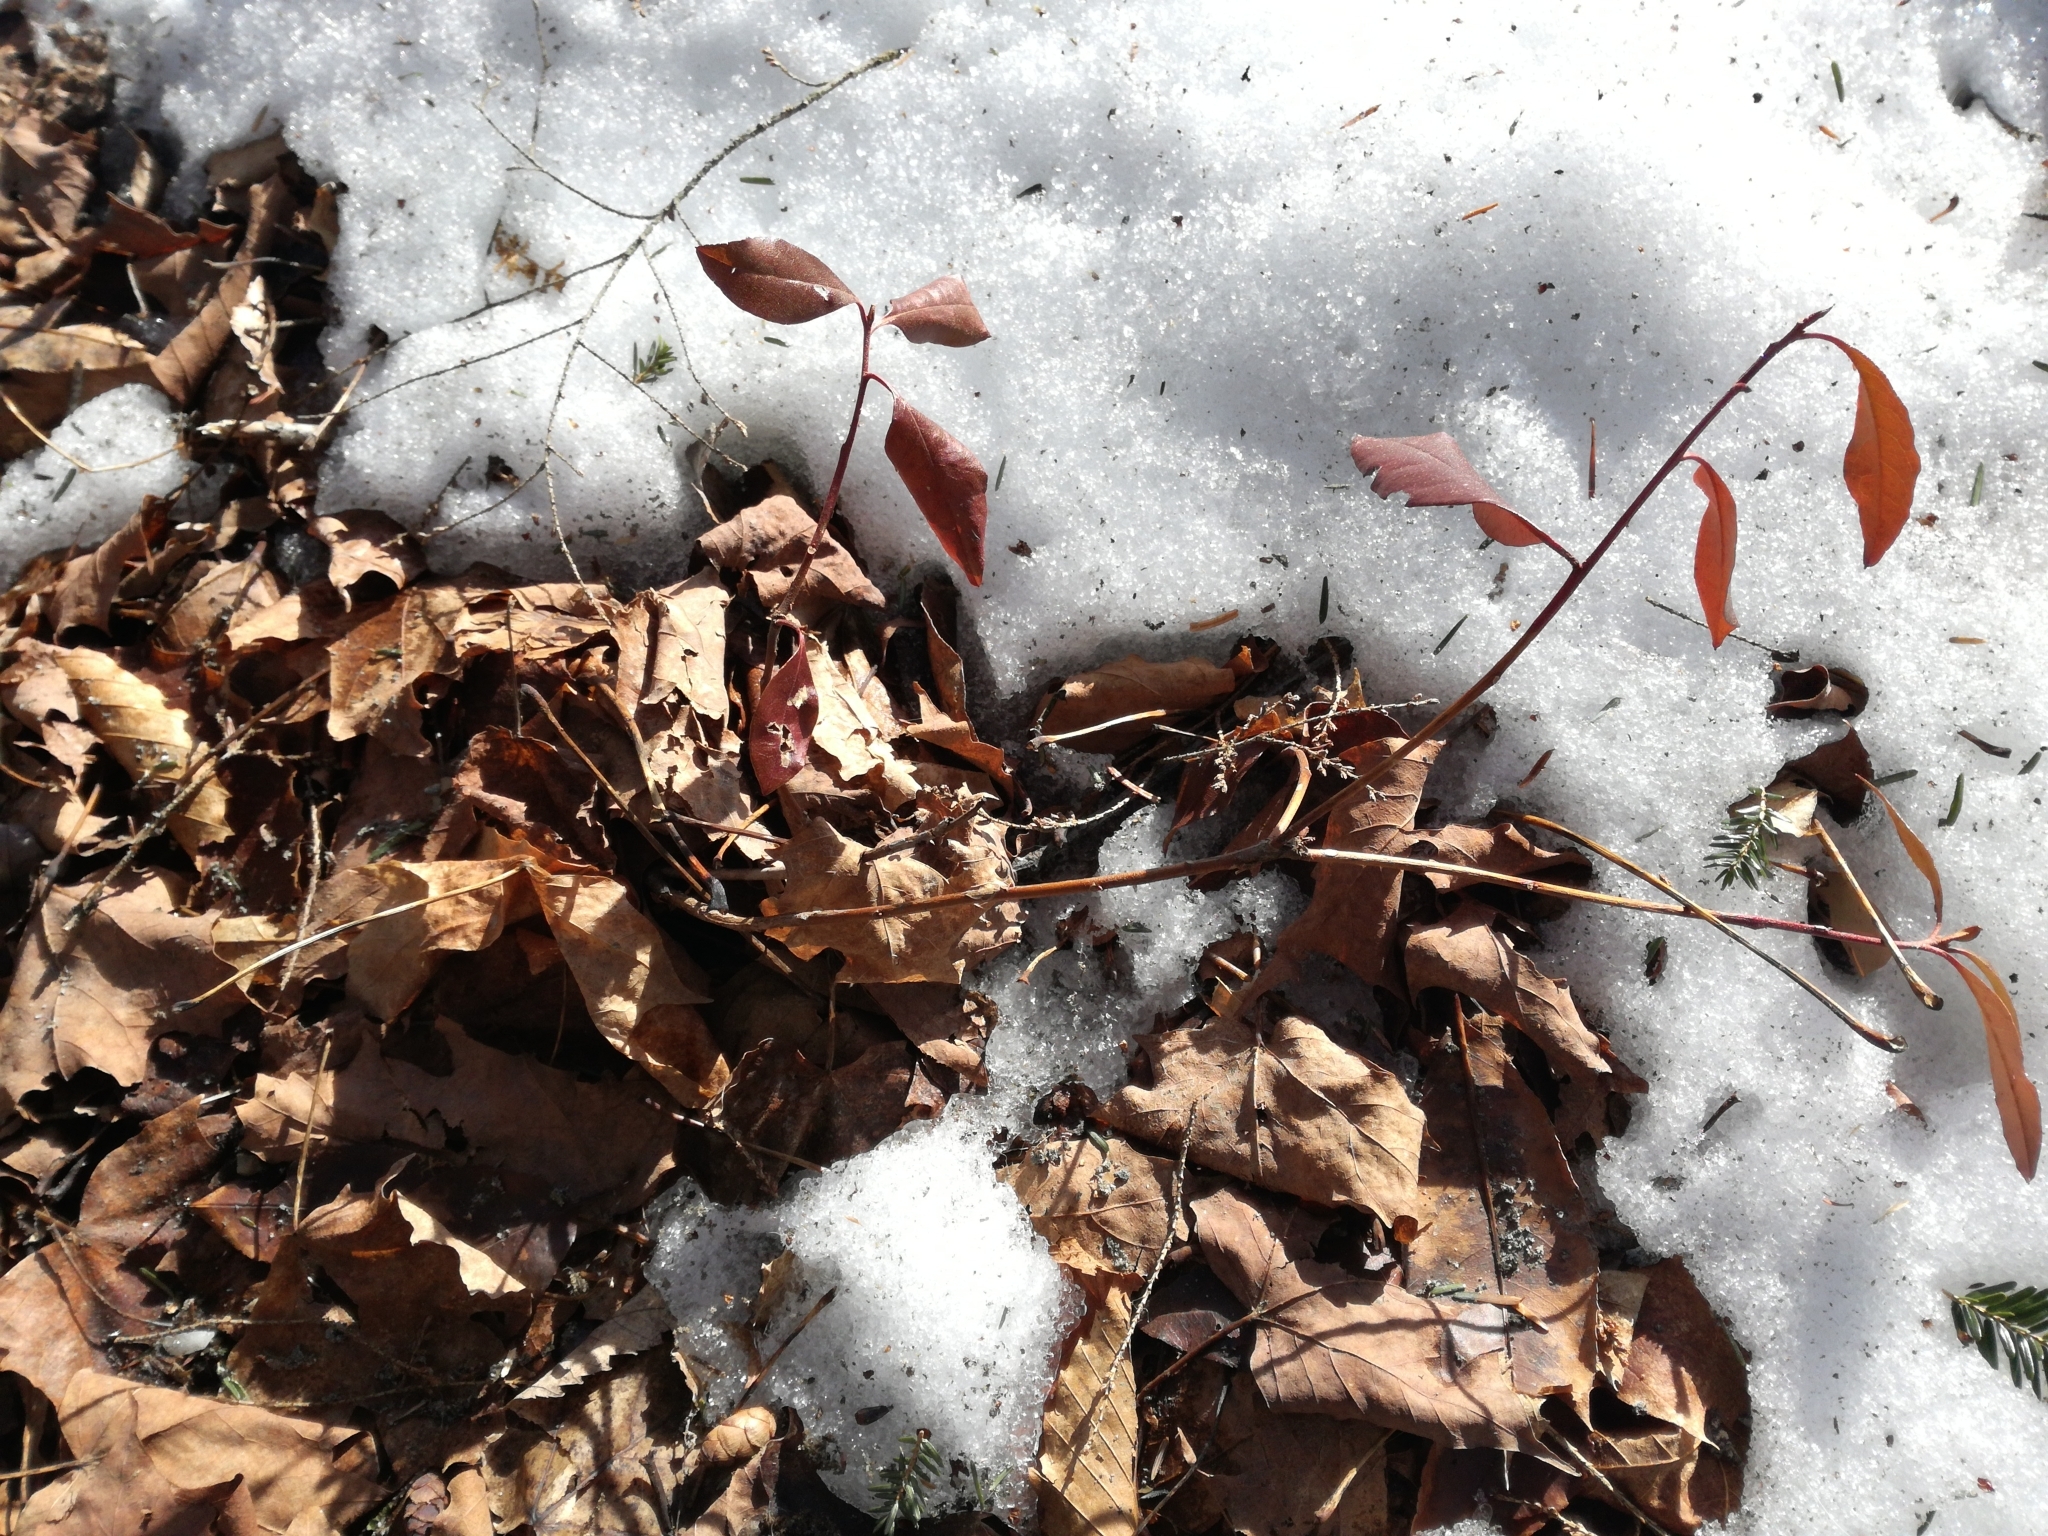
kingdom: Plantae
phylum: Tracheophyta
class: Magnoliopsida
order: Ericales
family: Ericaceae
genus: Gaultheria
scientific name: Gaultheria procumbens
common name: Checkerberry
